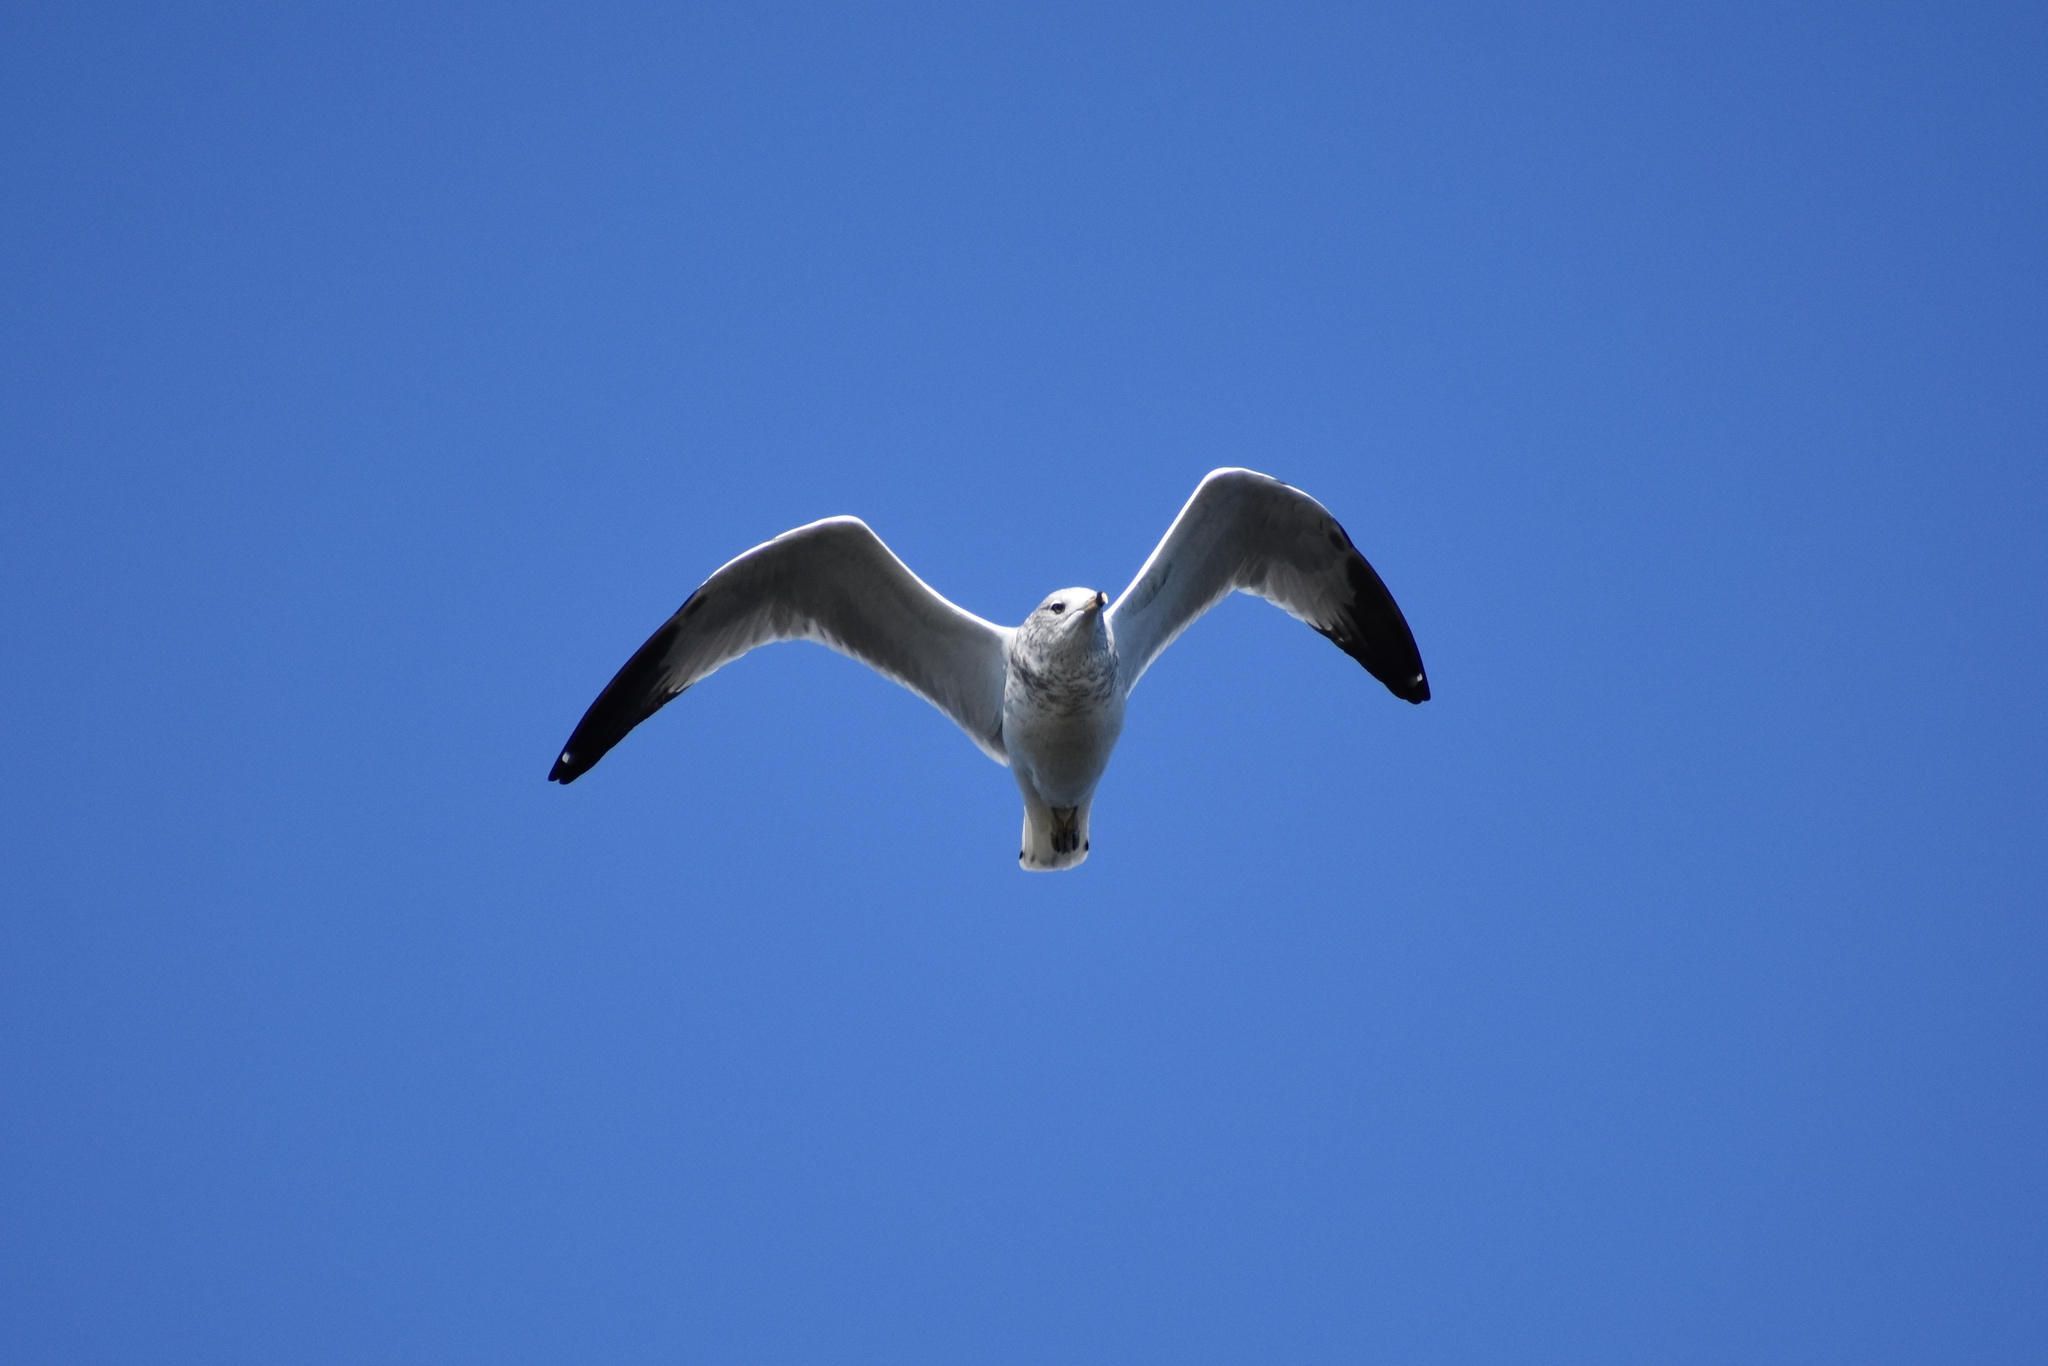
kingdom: Animalia
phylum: Chordata
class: Aves
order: Charadriiformes
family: Laridae
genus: Larus
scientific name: Larus delawarensis
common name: Ring-billed gull
